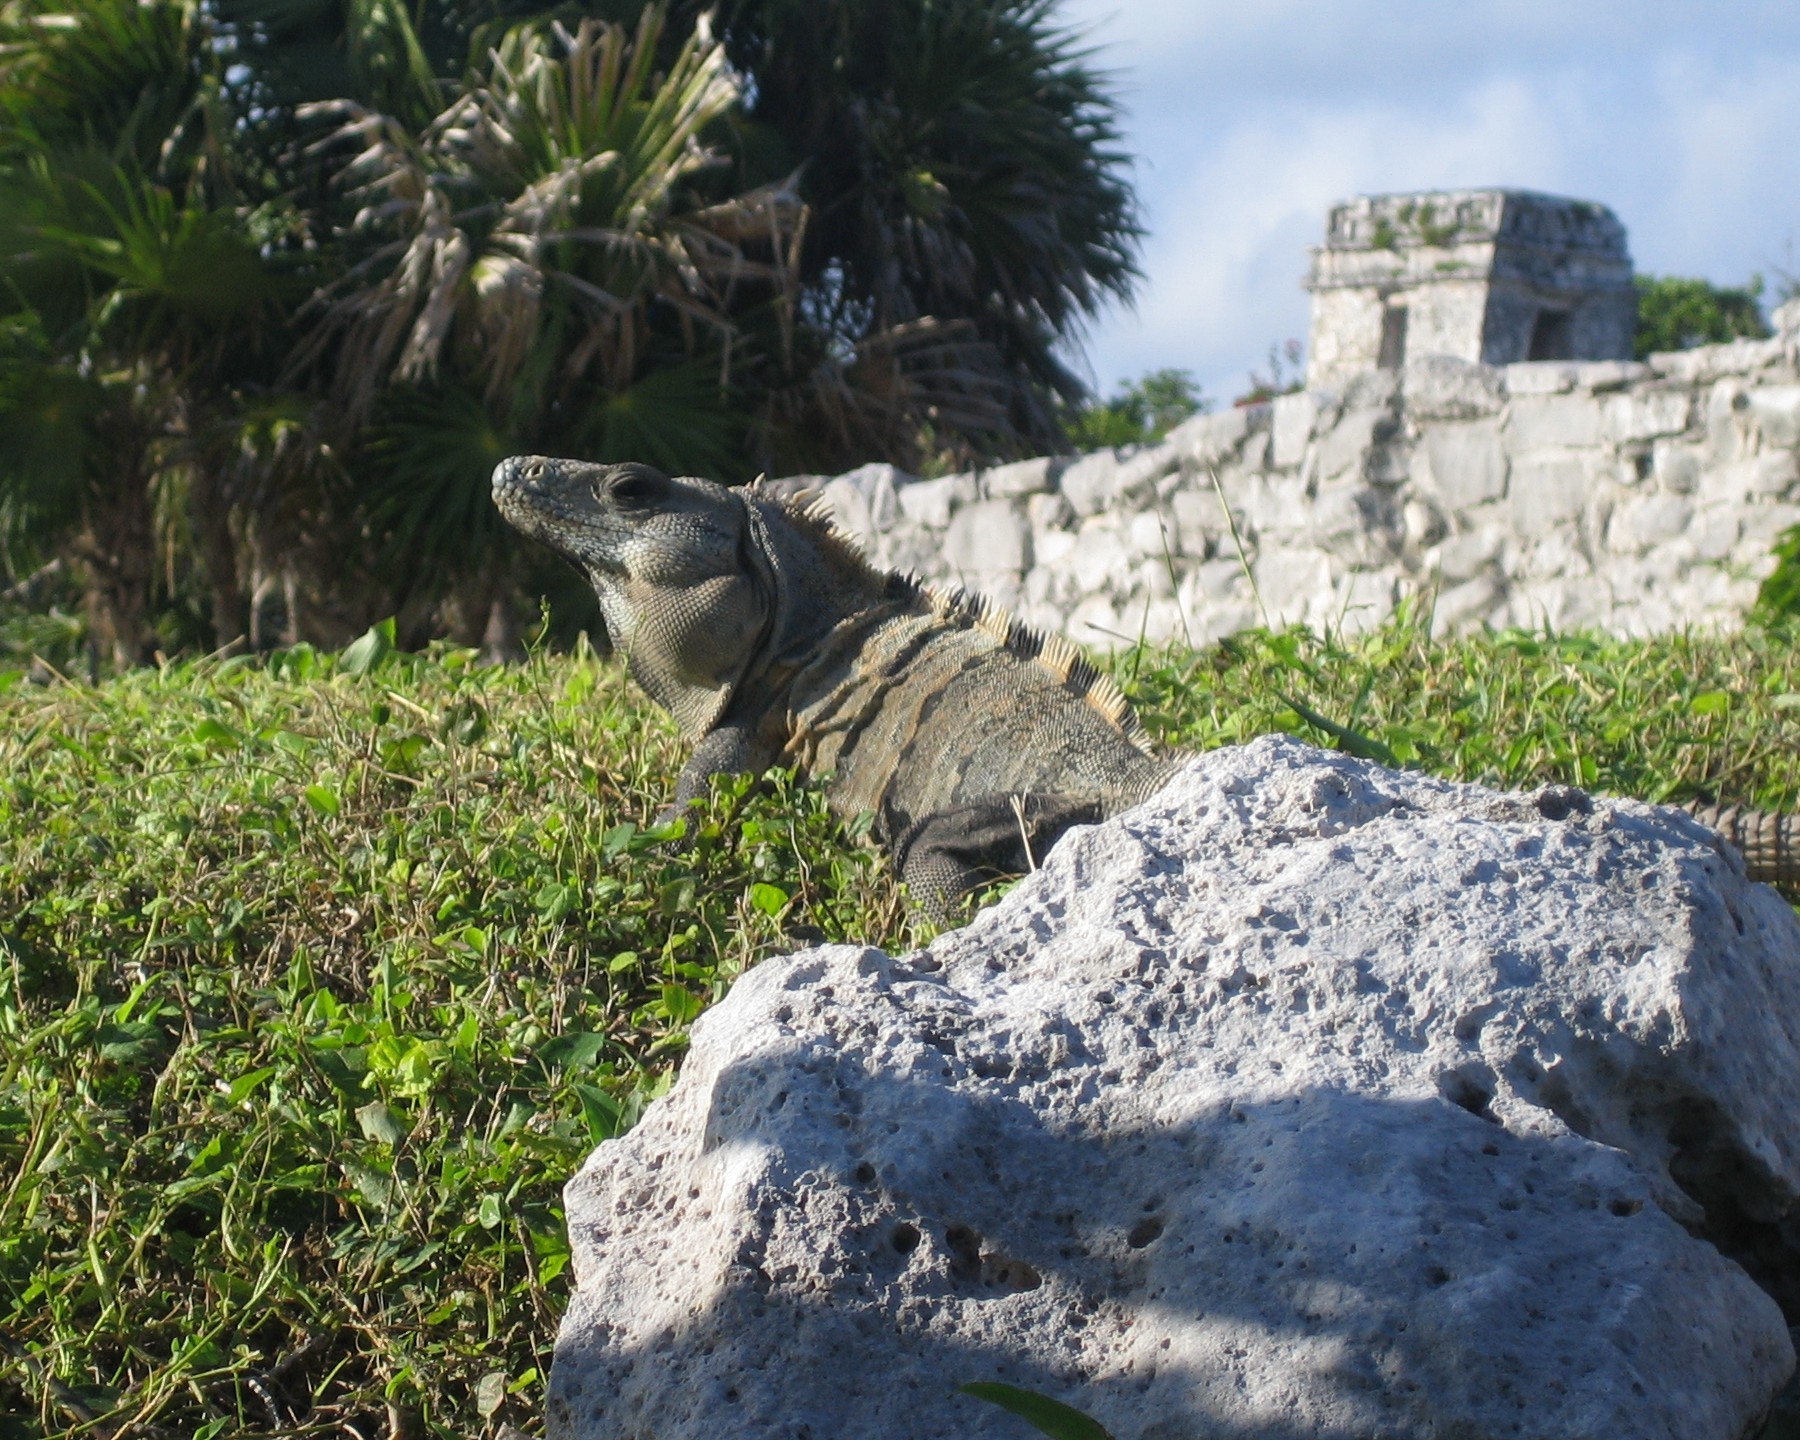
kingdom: Animalia
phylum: Chordata
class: Squamata
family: Iguanidae
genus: Ctenosaura
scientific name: Ctenosaura similis
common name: Black spiny-tailed iguana
